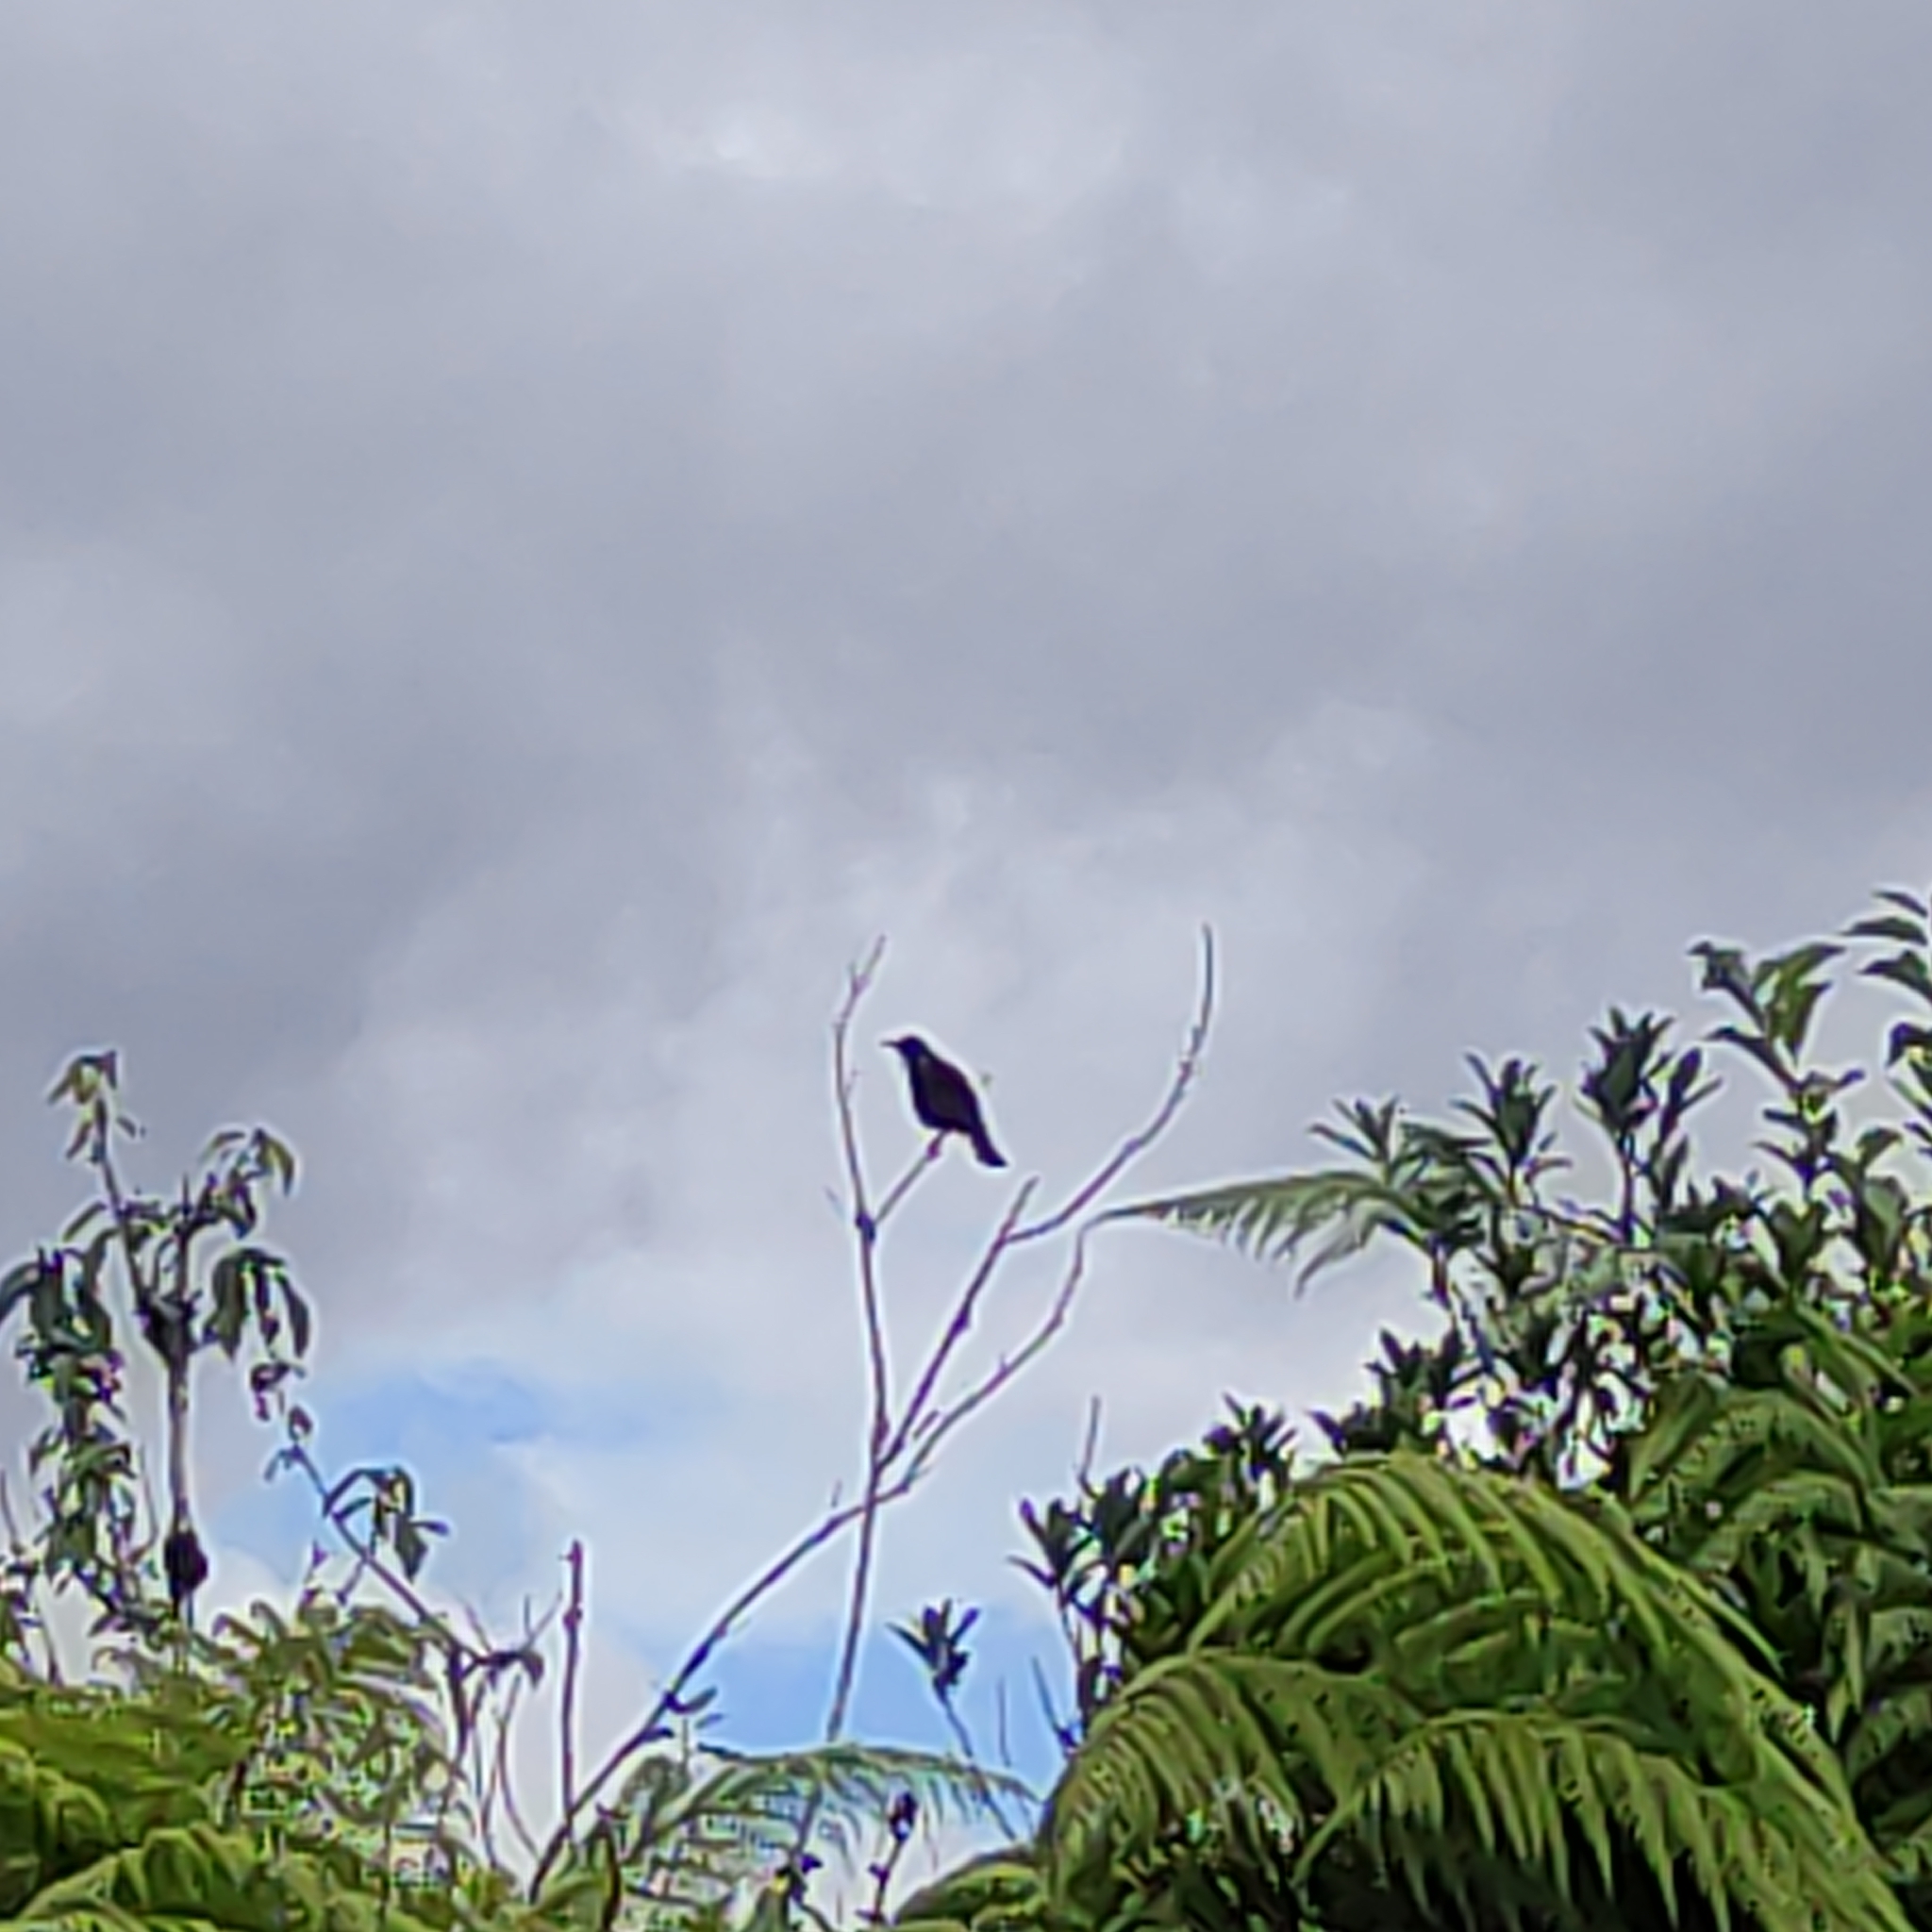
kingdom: Animalia
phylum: Chordata
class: Aves
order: Passeriformes
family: Meliphagidae
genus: Prosthemadera
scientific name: Prosthemadera novaeseelandiae
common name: Tui
